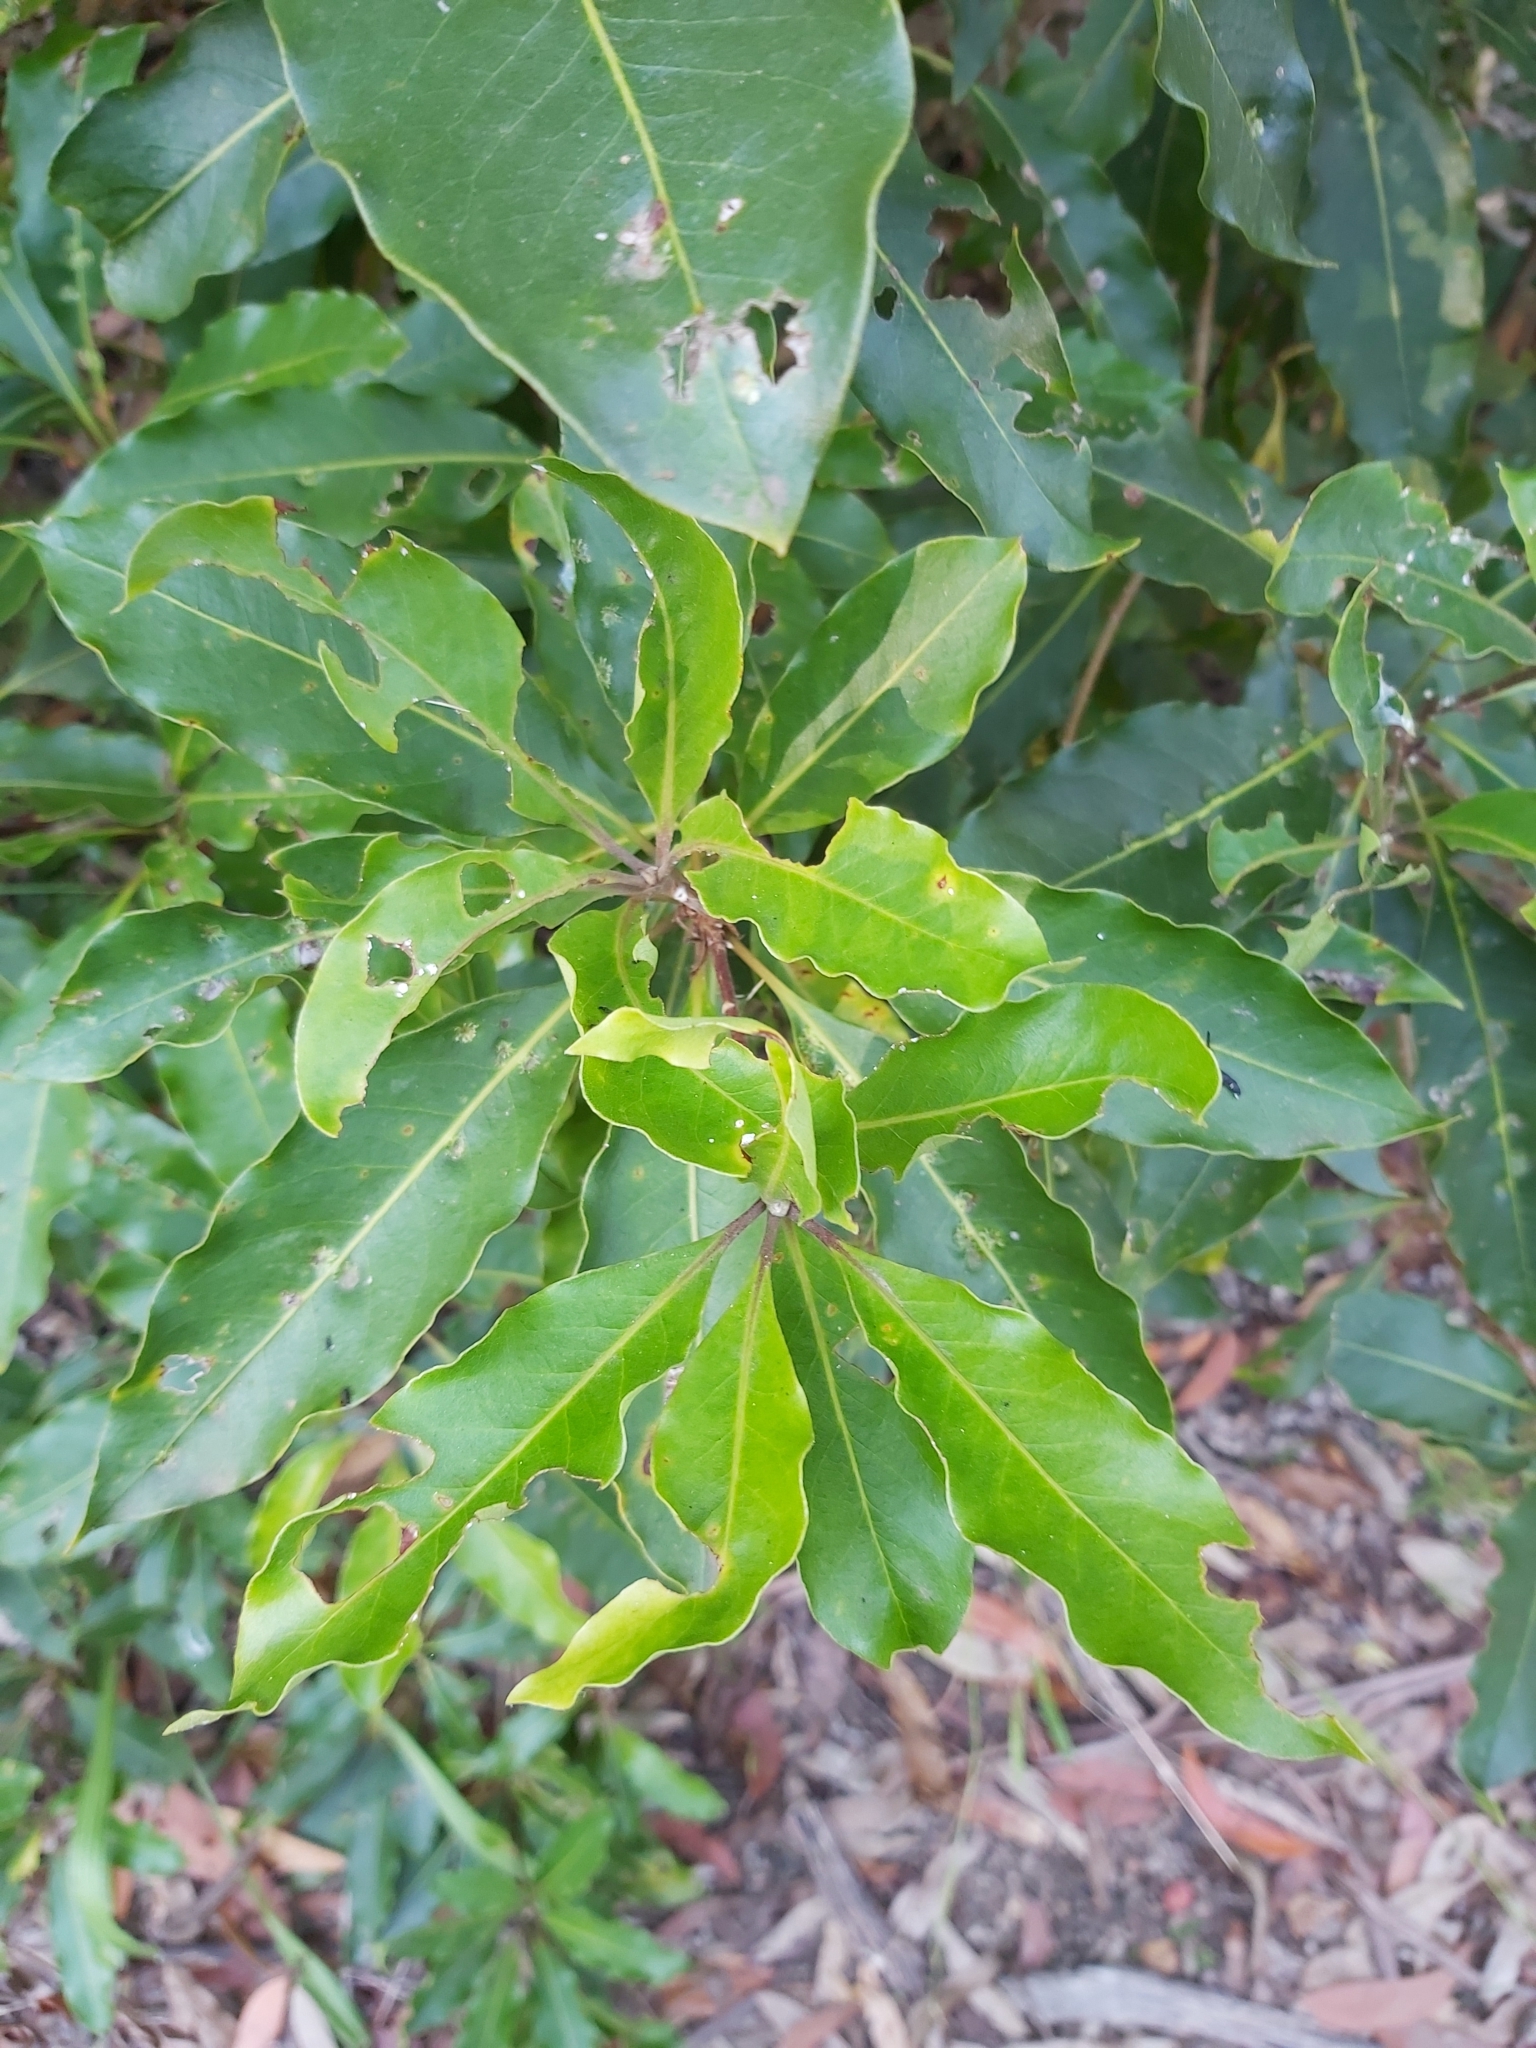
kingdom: Plantae
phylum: Tracheophyta
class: Magnoliopsida
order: Apiales
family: Pittosporaceae
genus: Pittosporum
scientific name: Pittosporum undulatum
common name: Australian cheesewood
